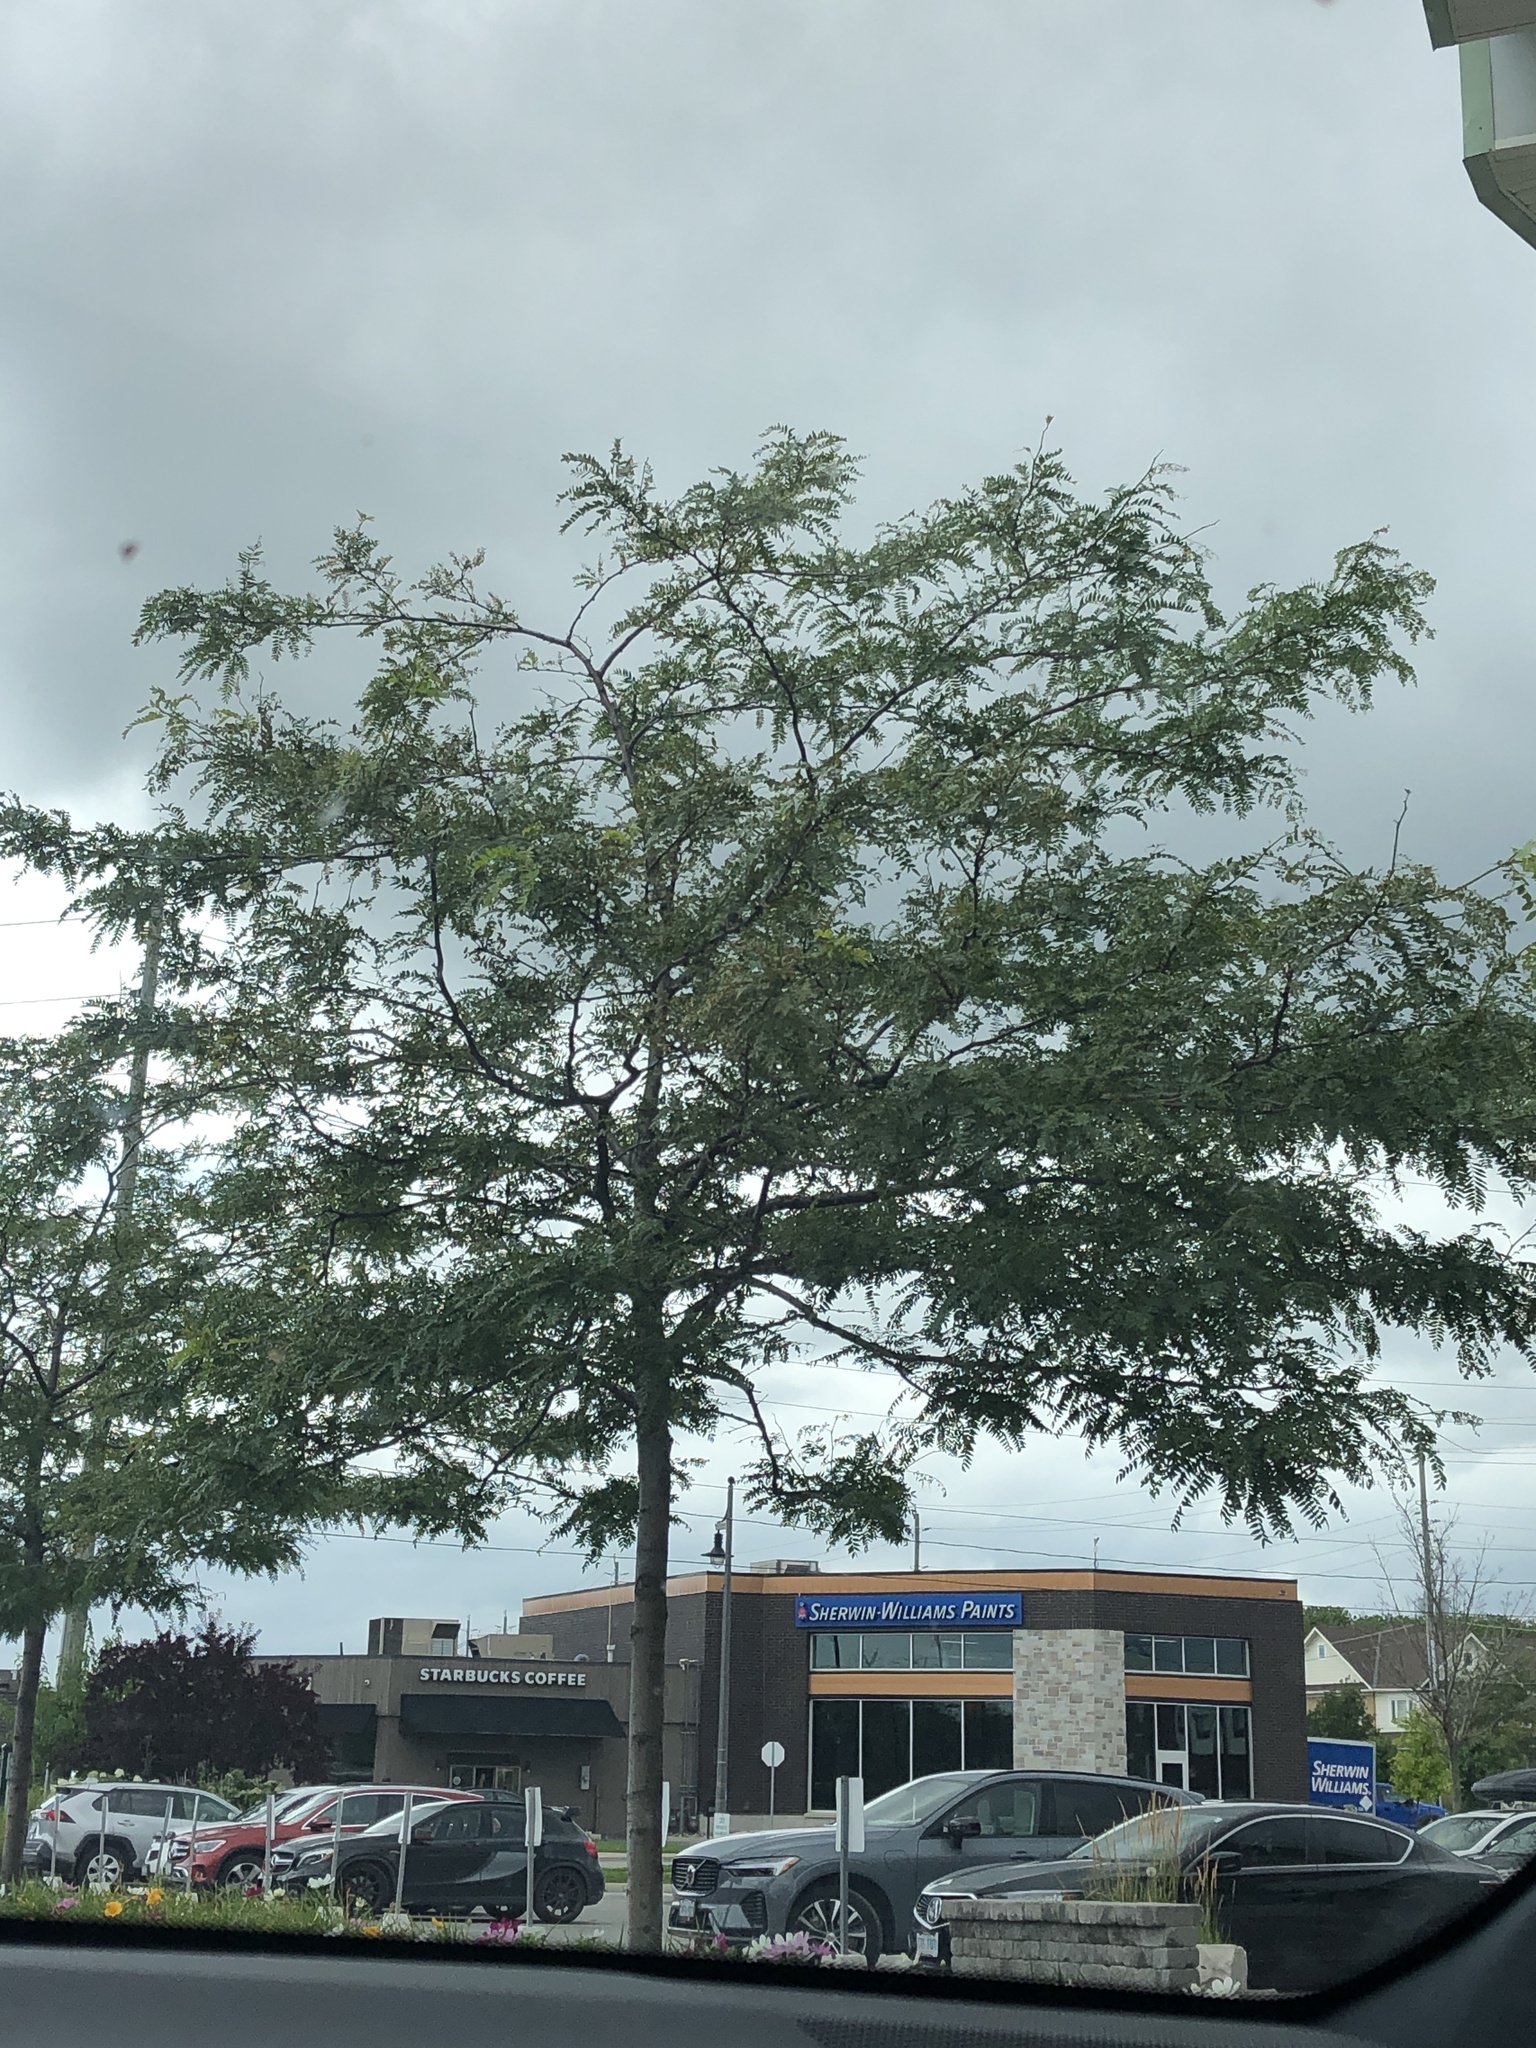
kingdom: Plantae
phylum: Tracheophyta
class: Magnoliopsida
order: Fabales
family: Fabaceae
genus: Robinia
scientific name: Robinia pseudoacacia
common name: Black locust
